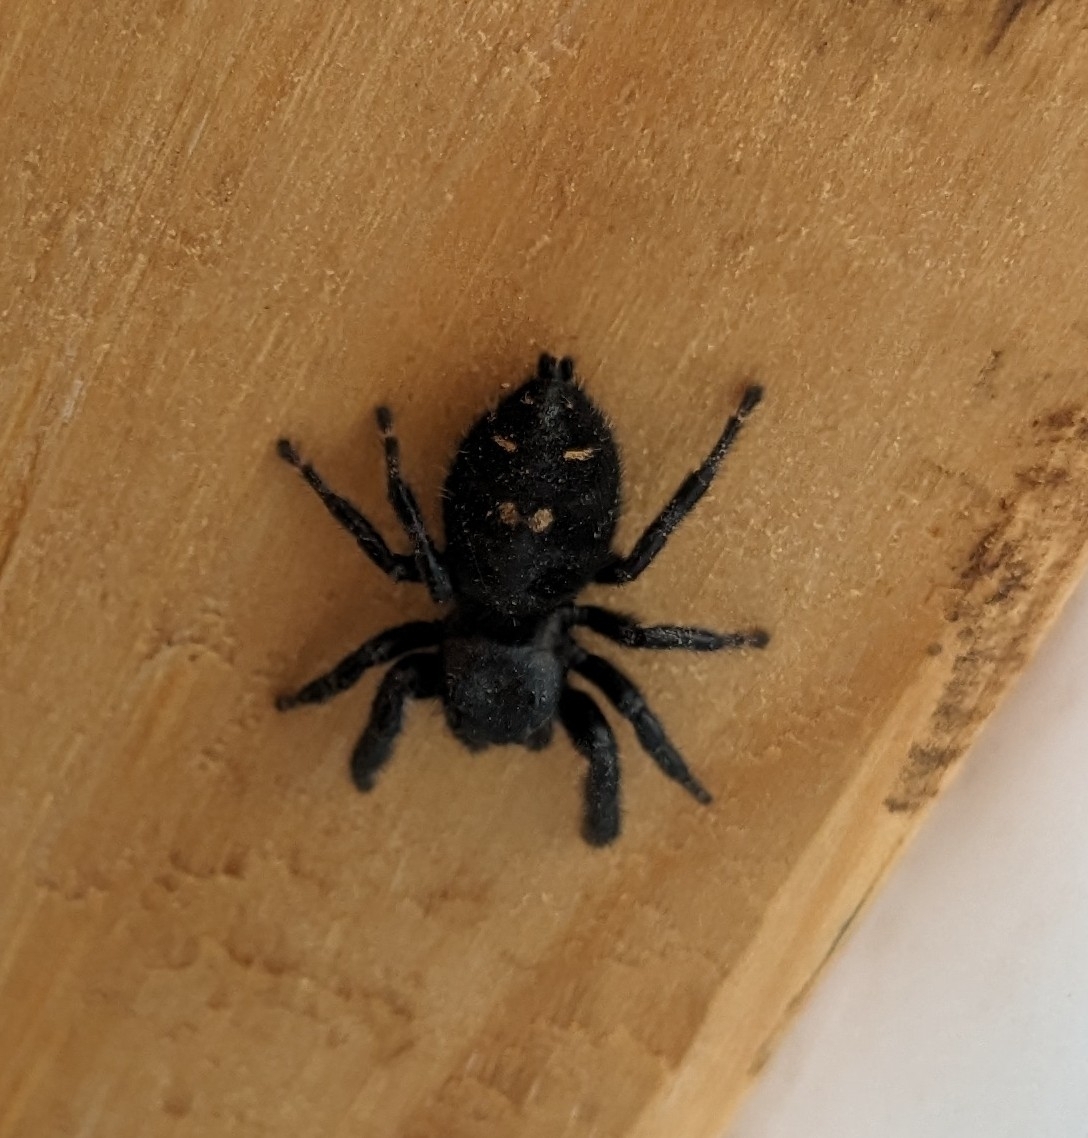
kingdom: Animalia
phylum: Arthropoda
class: Arachnida
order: Araneae
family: Salticidae
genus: Phidippus
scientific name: Phidippus audax
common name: Bold jumper
